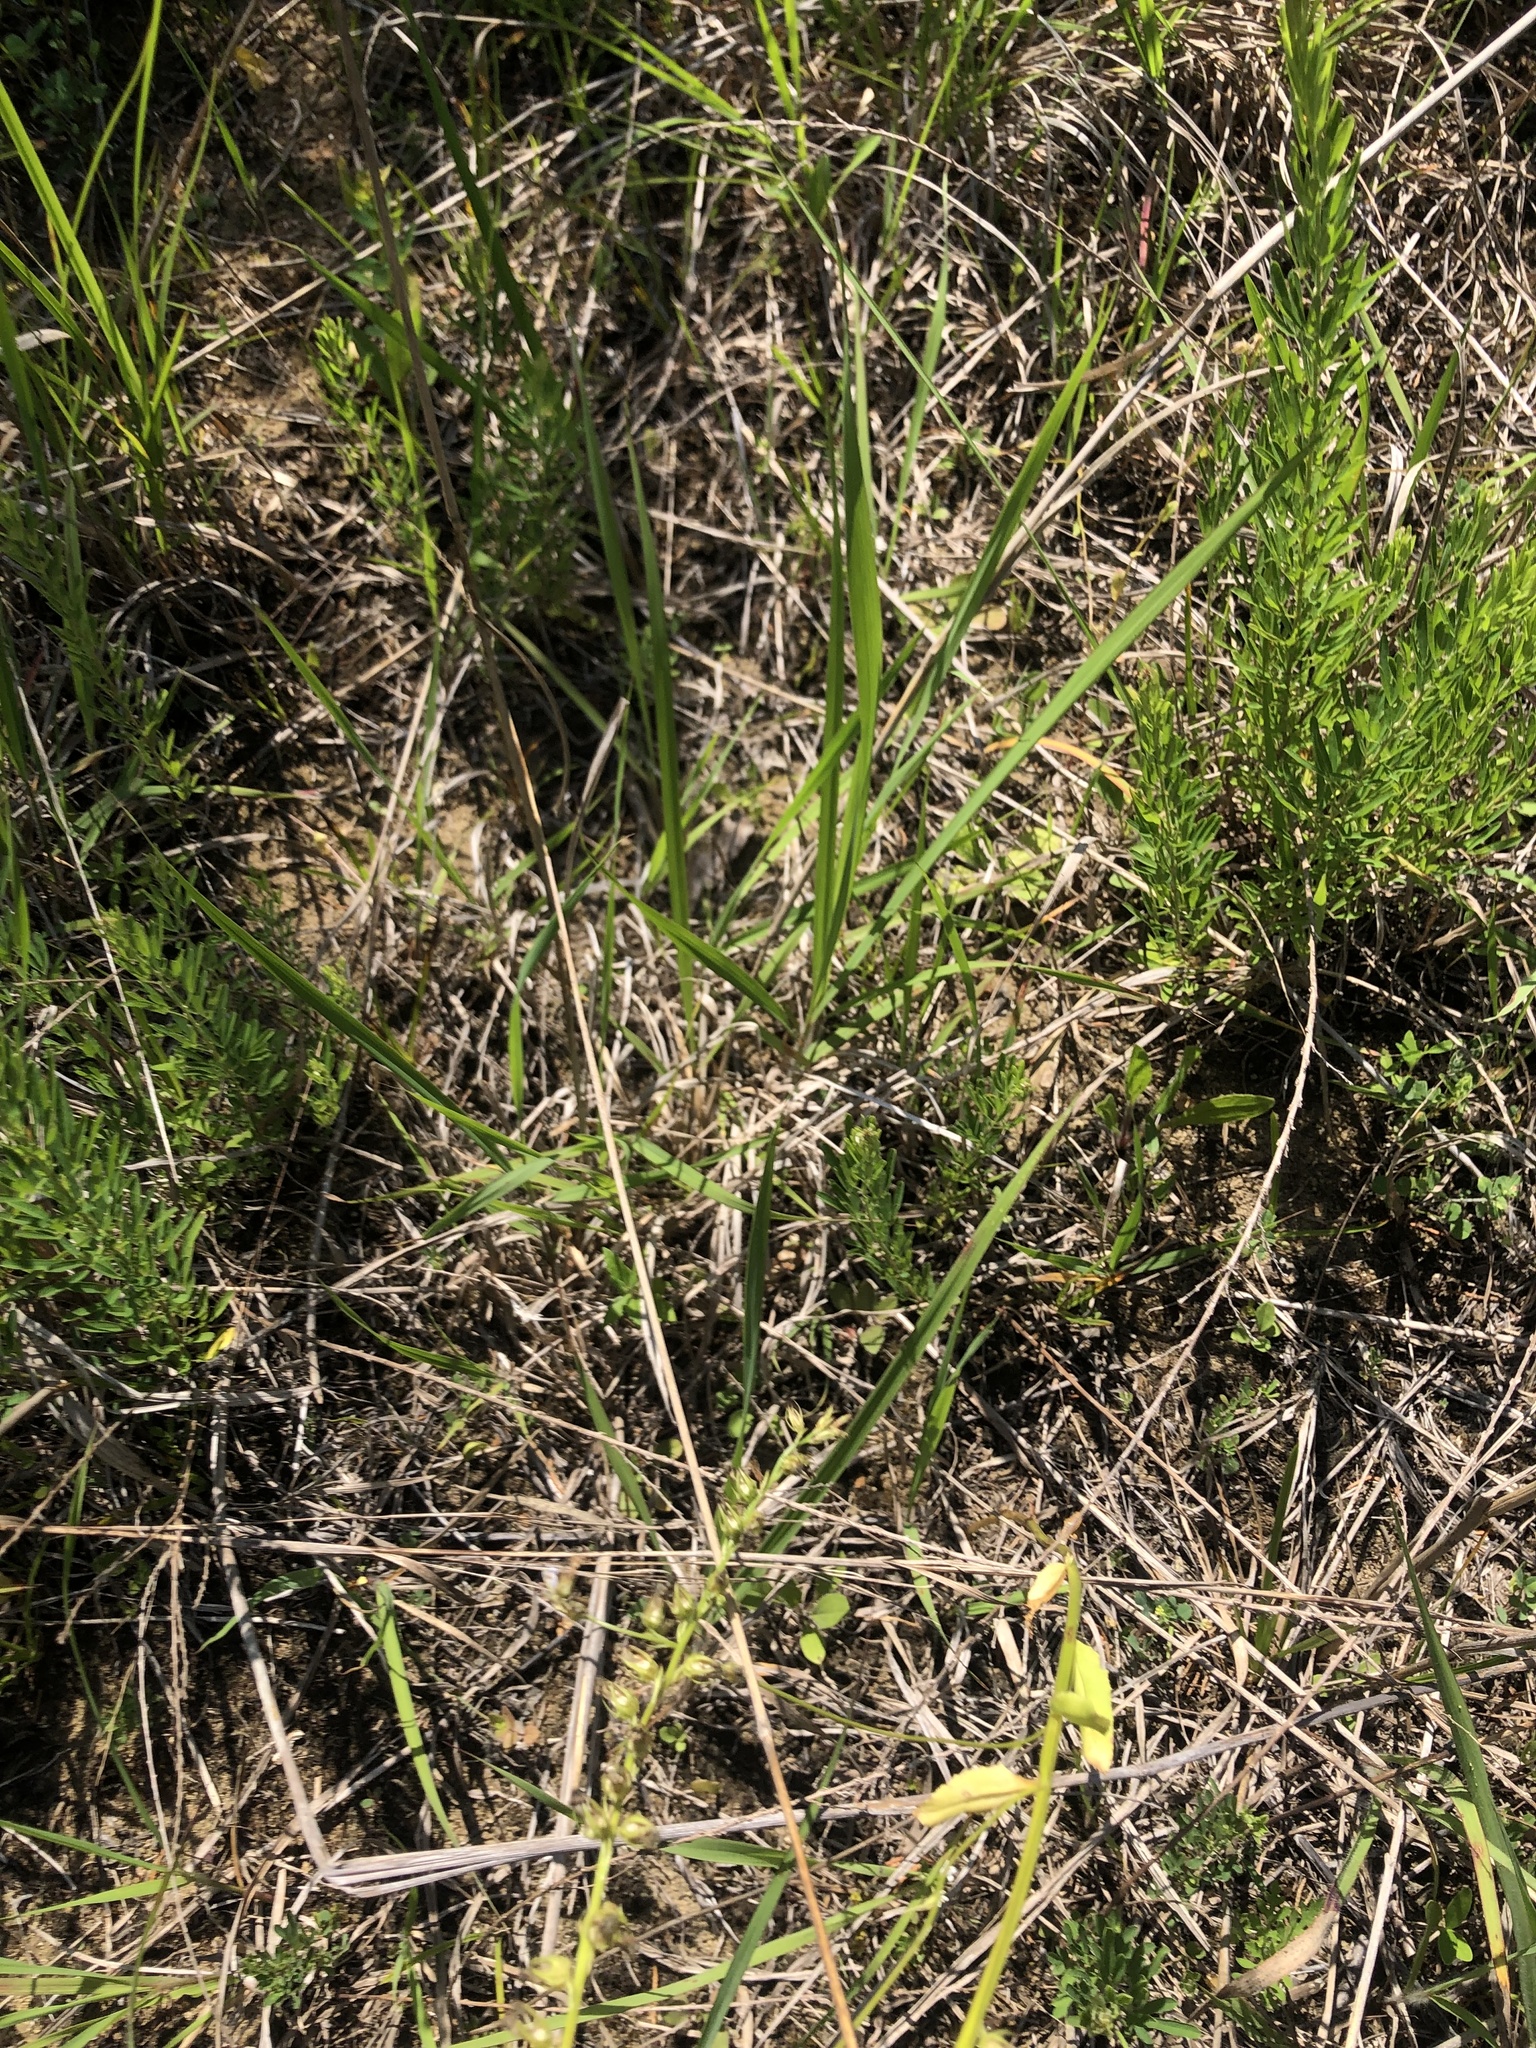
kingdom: Plantae
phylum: Tracheophyta
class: Magnoliopsida
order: Asterales
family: Campanulaceae
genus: Lobelia
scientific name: Lobelia appendiculata
